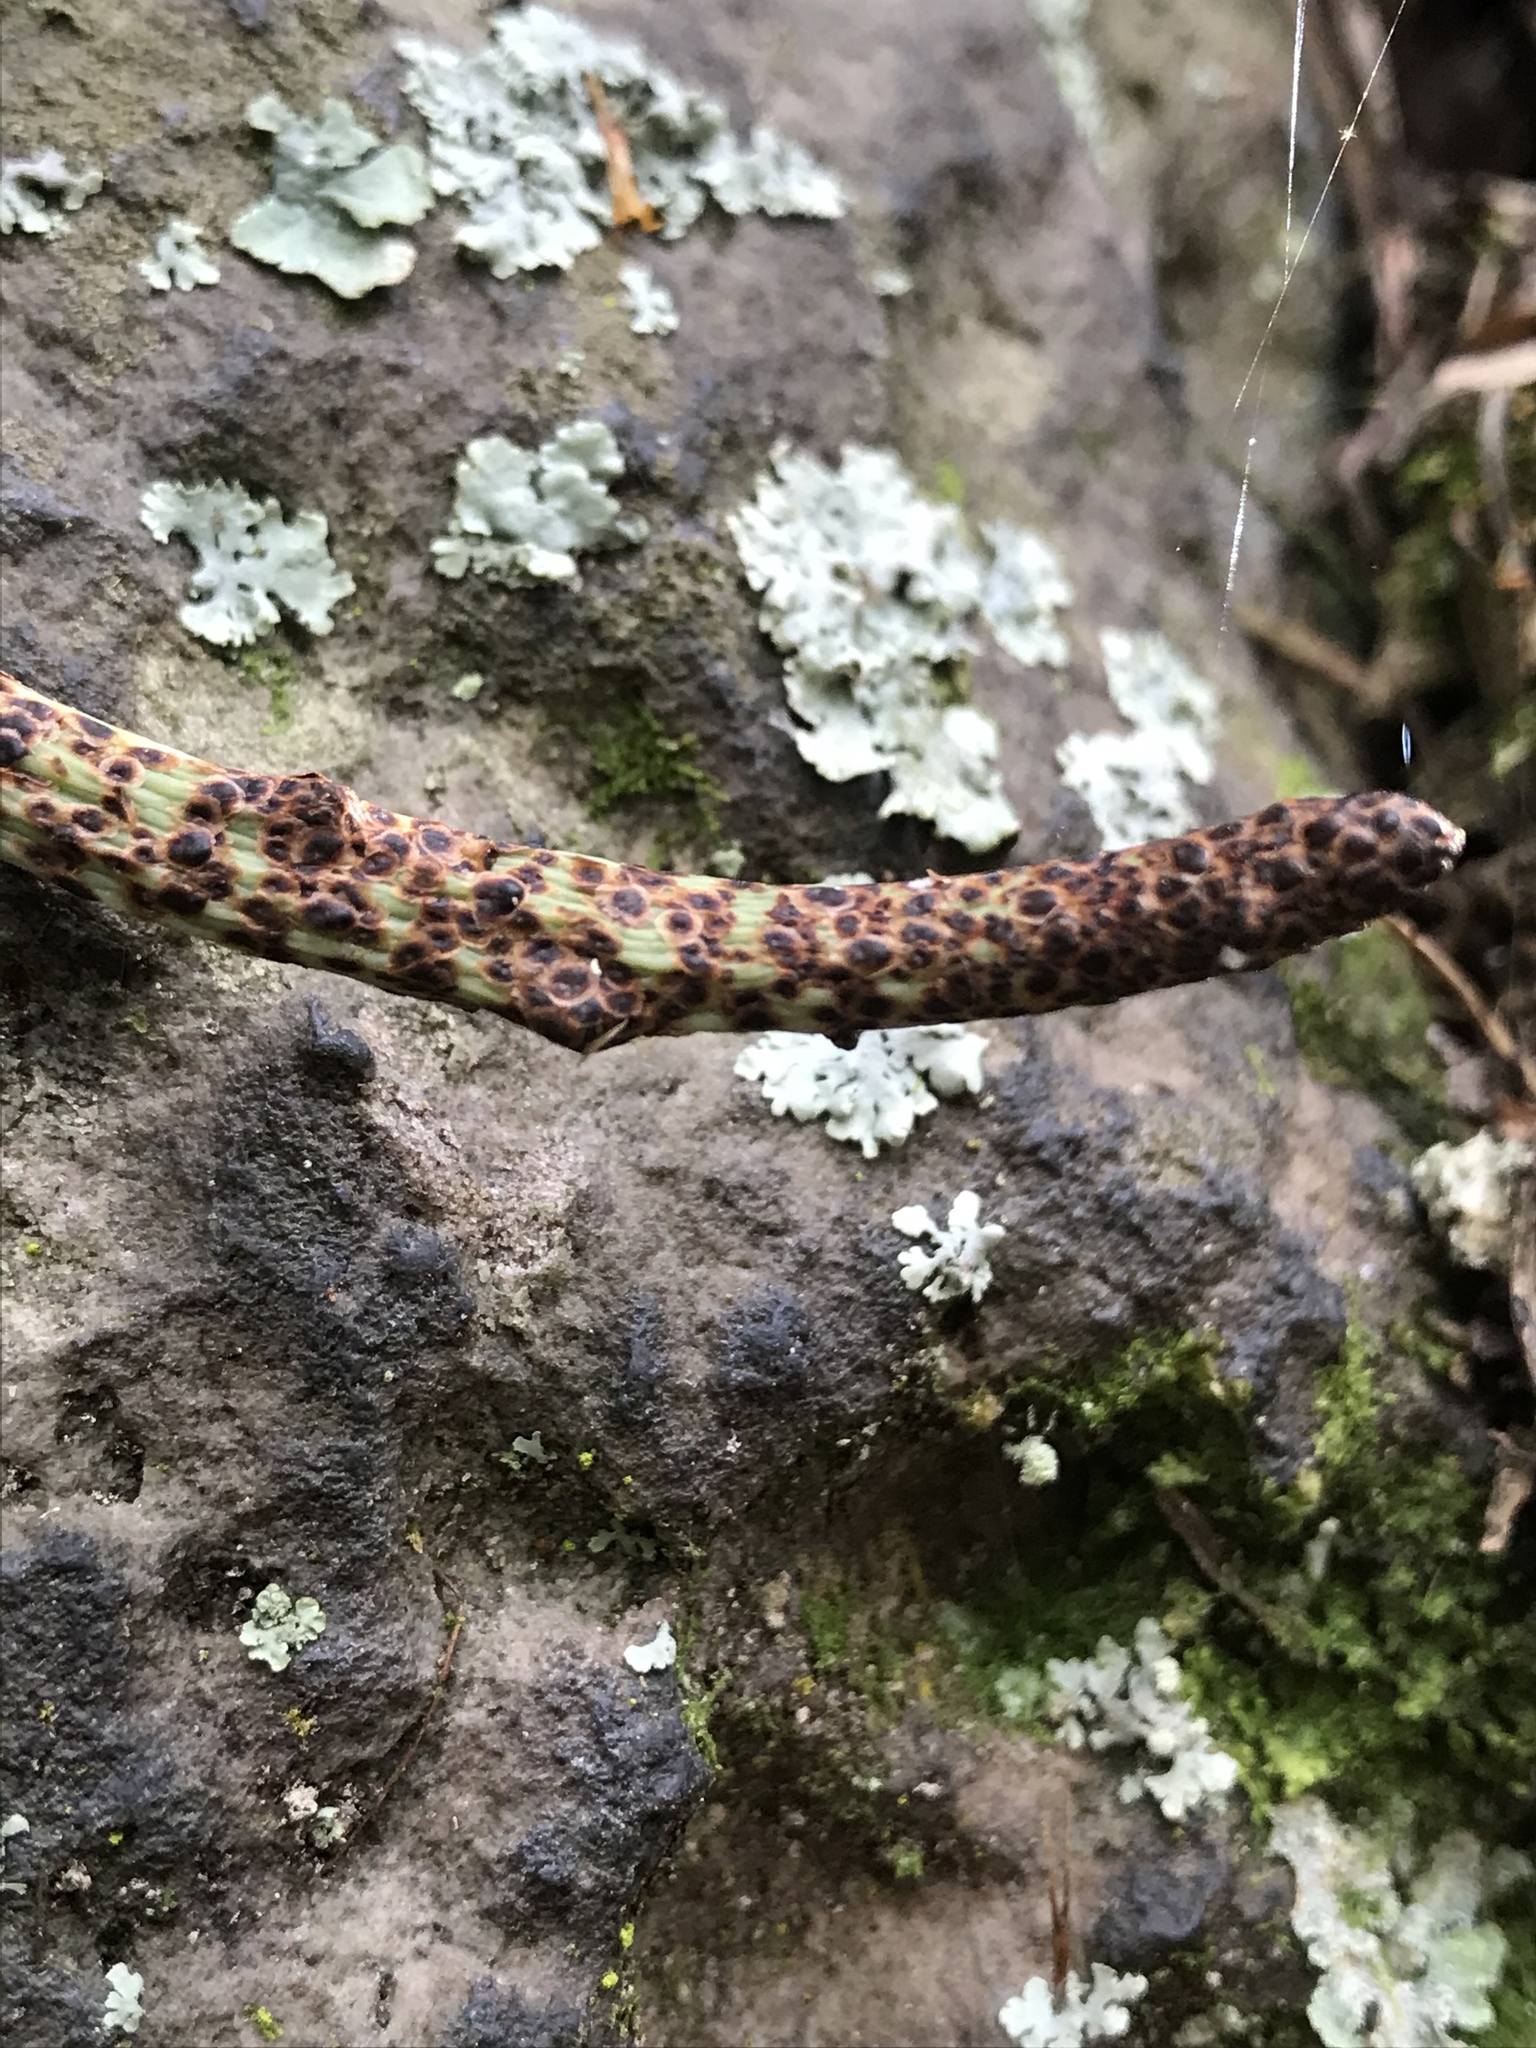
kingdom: Plantae
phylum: Tracheophyta
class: Polypodiopsida
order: Polypodiales
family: Polypodiaceae
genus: Serpocaulon
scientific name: Serpocaulon levigatum
